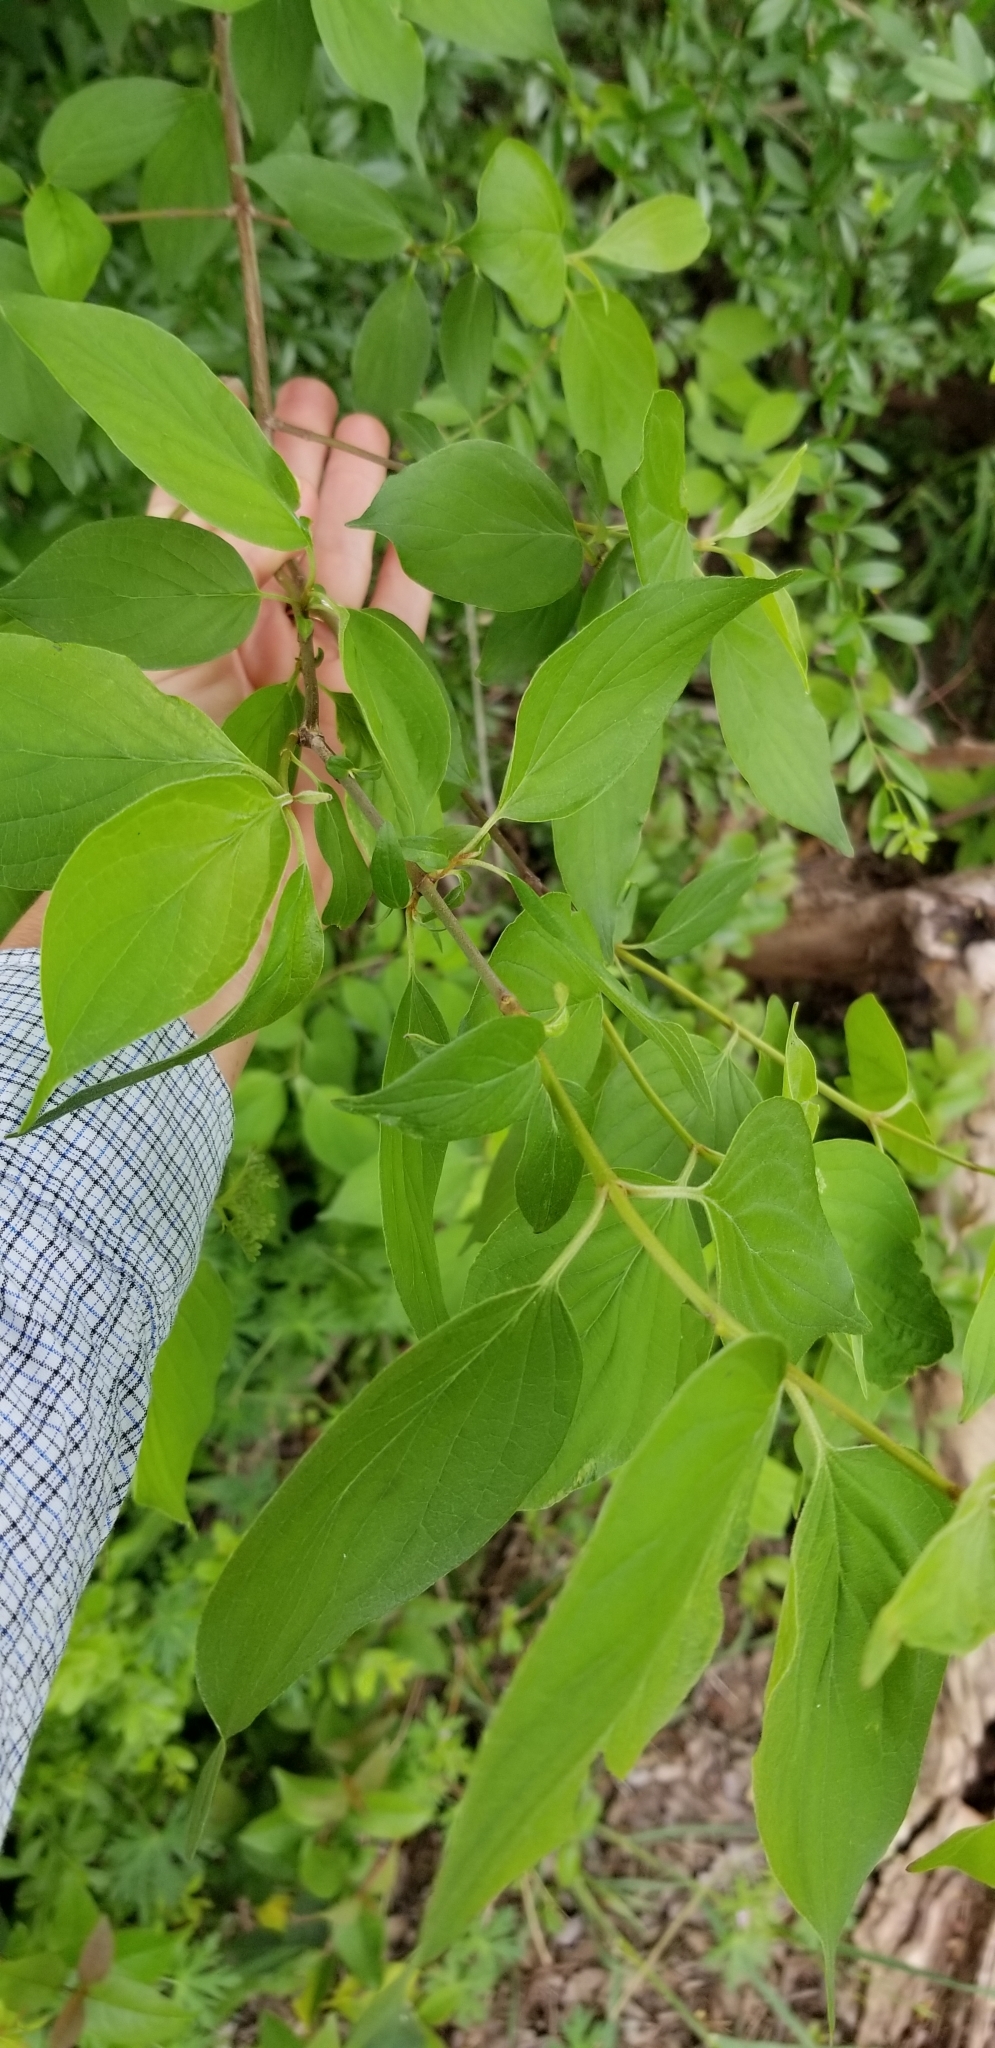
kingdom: Plantae
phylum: Tracheophyta
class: Magnoliopsida
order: Cornales
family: Cornaceae
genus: Cornus
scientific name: Cornus drummondii
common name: Rough-leaf dogwood
